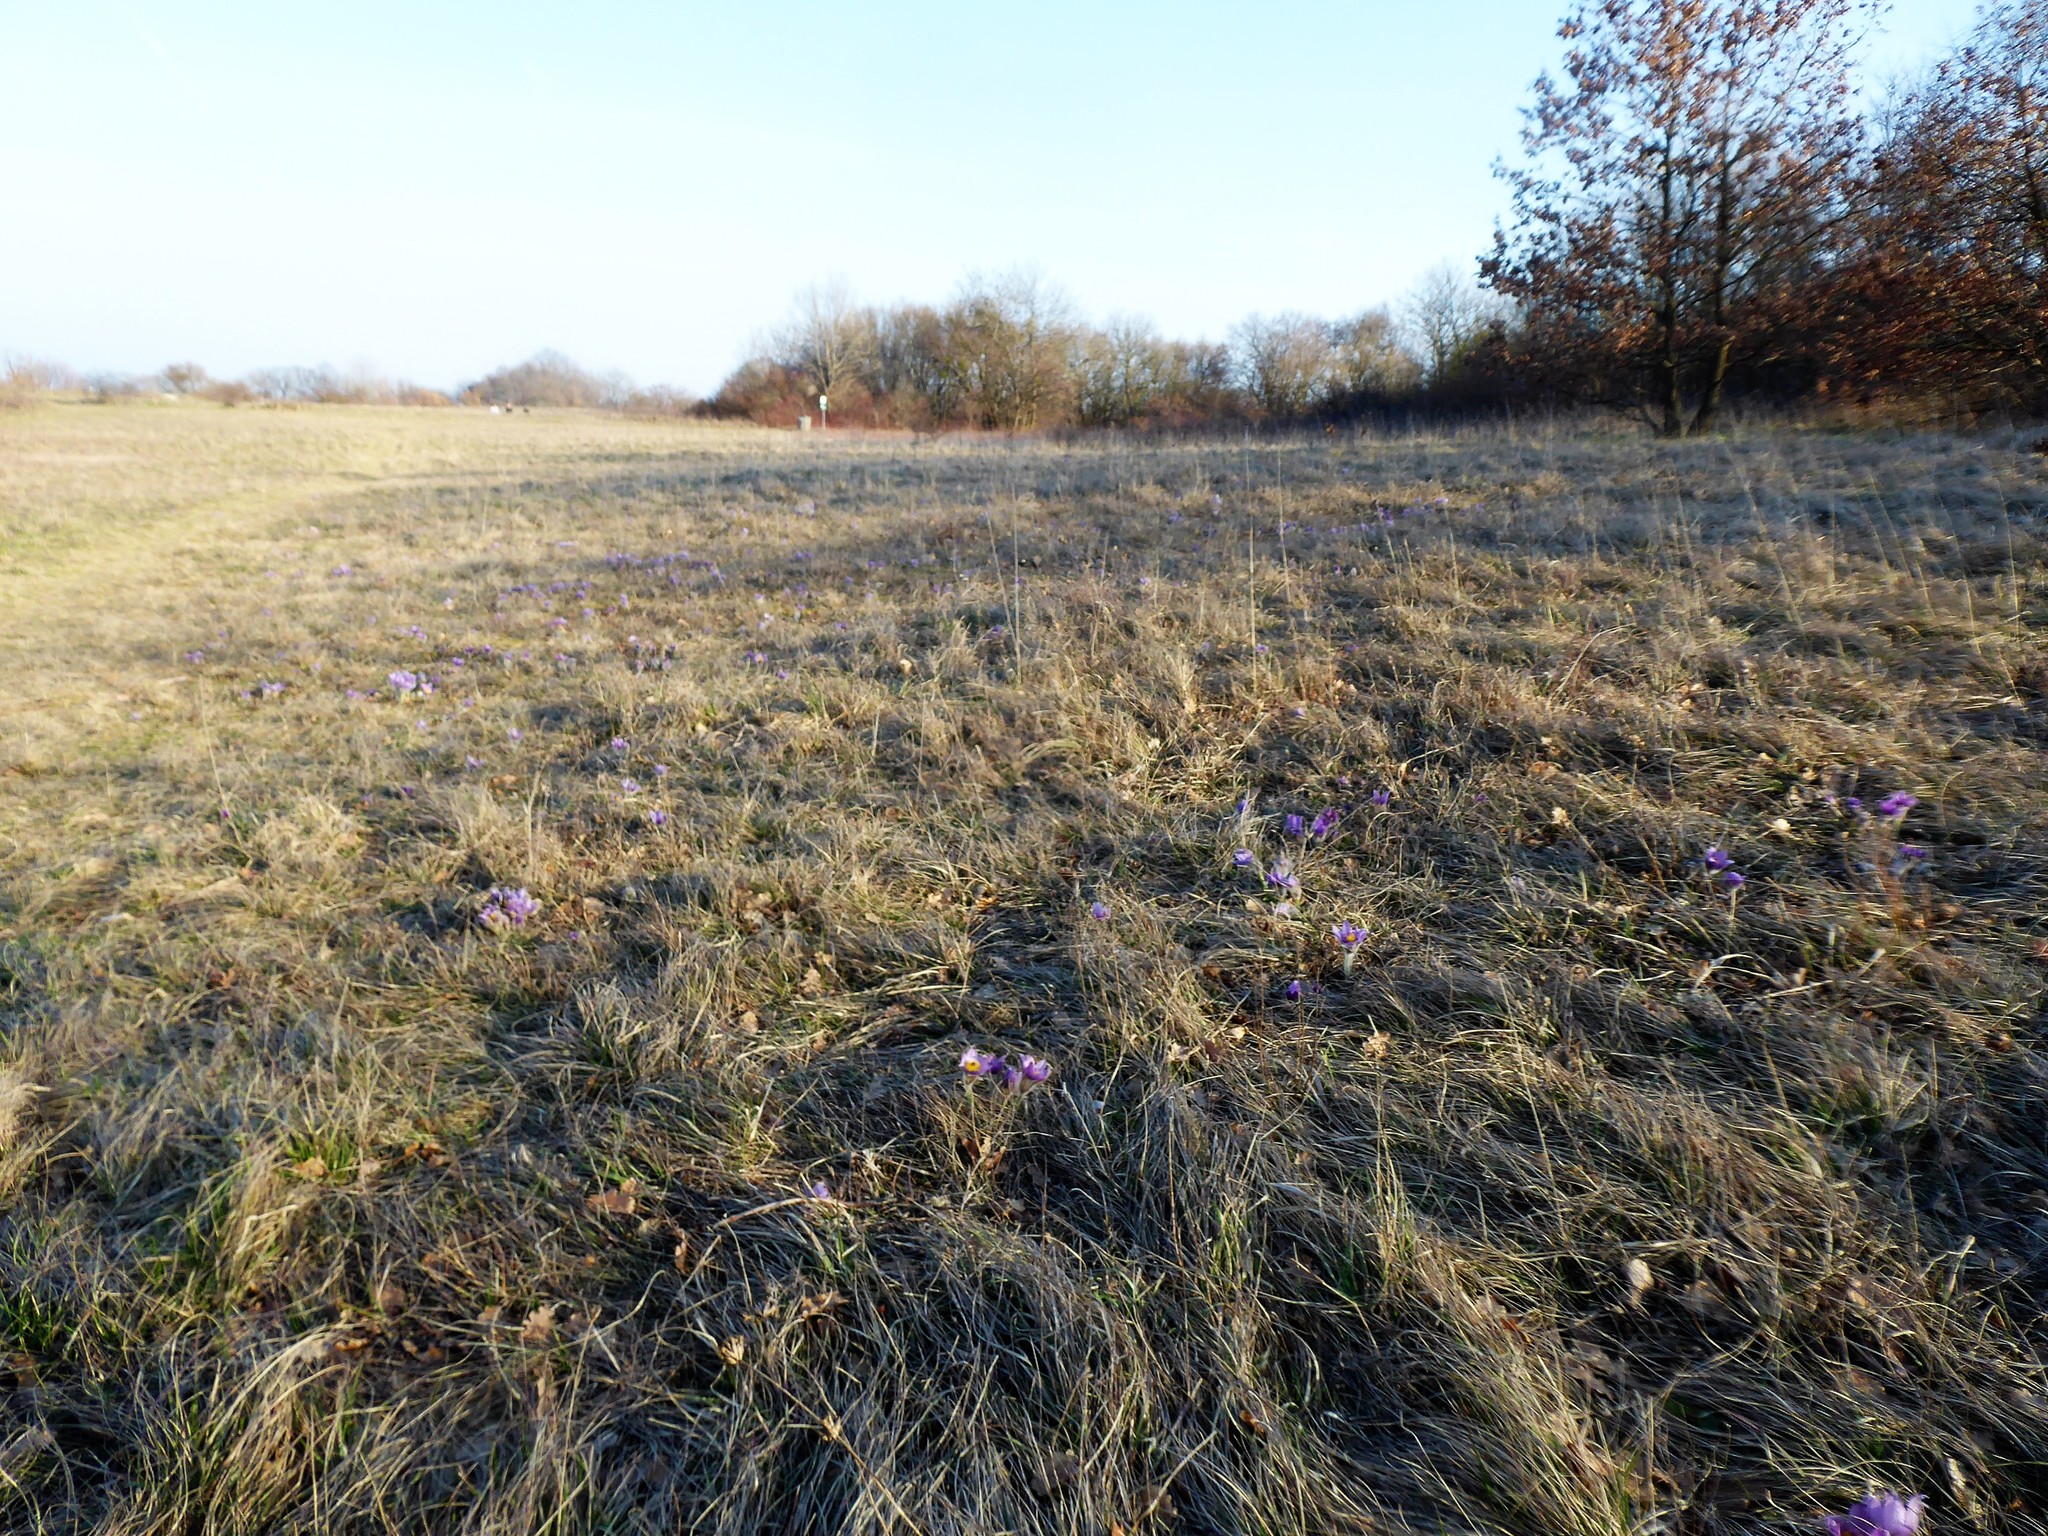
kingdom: Plantae
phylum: Tracheophyta
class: Magnoliopsida
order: Ranunculales
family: Ranunculaceae
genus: Pulsatilla
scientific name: Pulsatilla grandis
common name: Greater pasque flower
